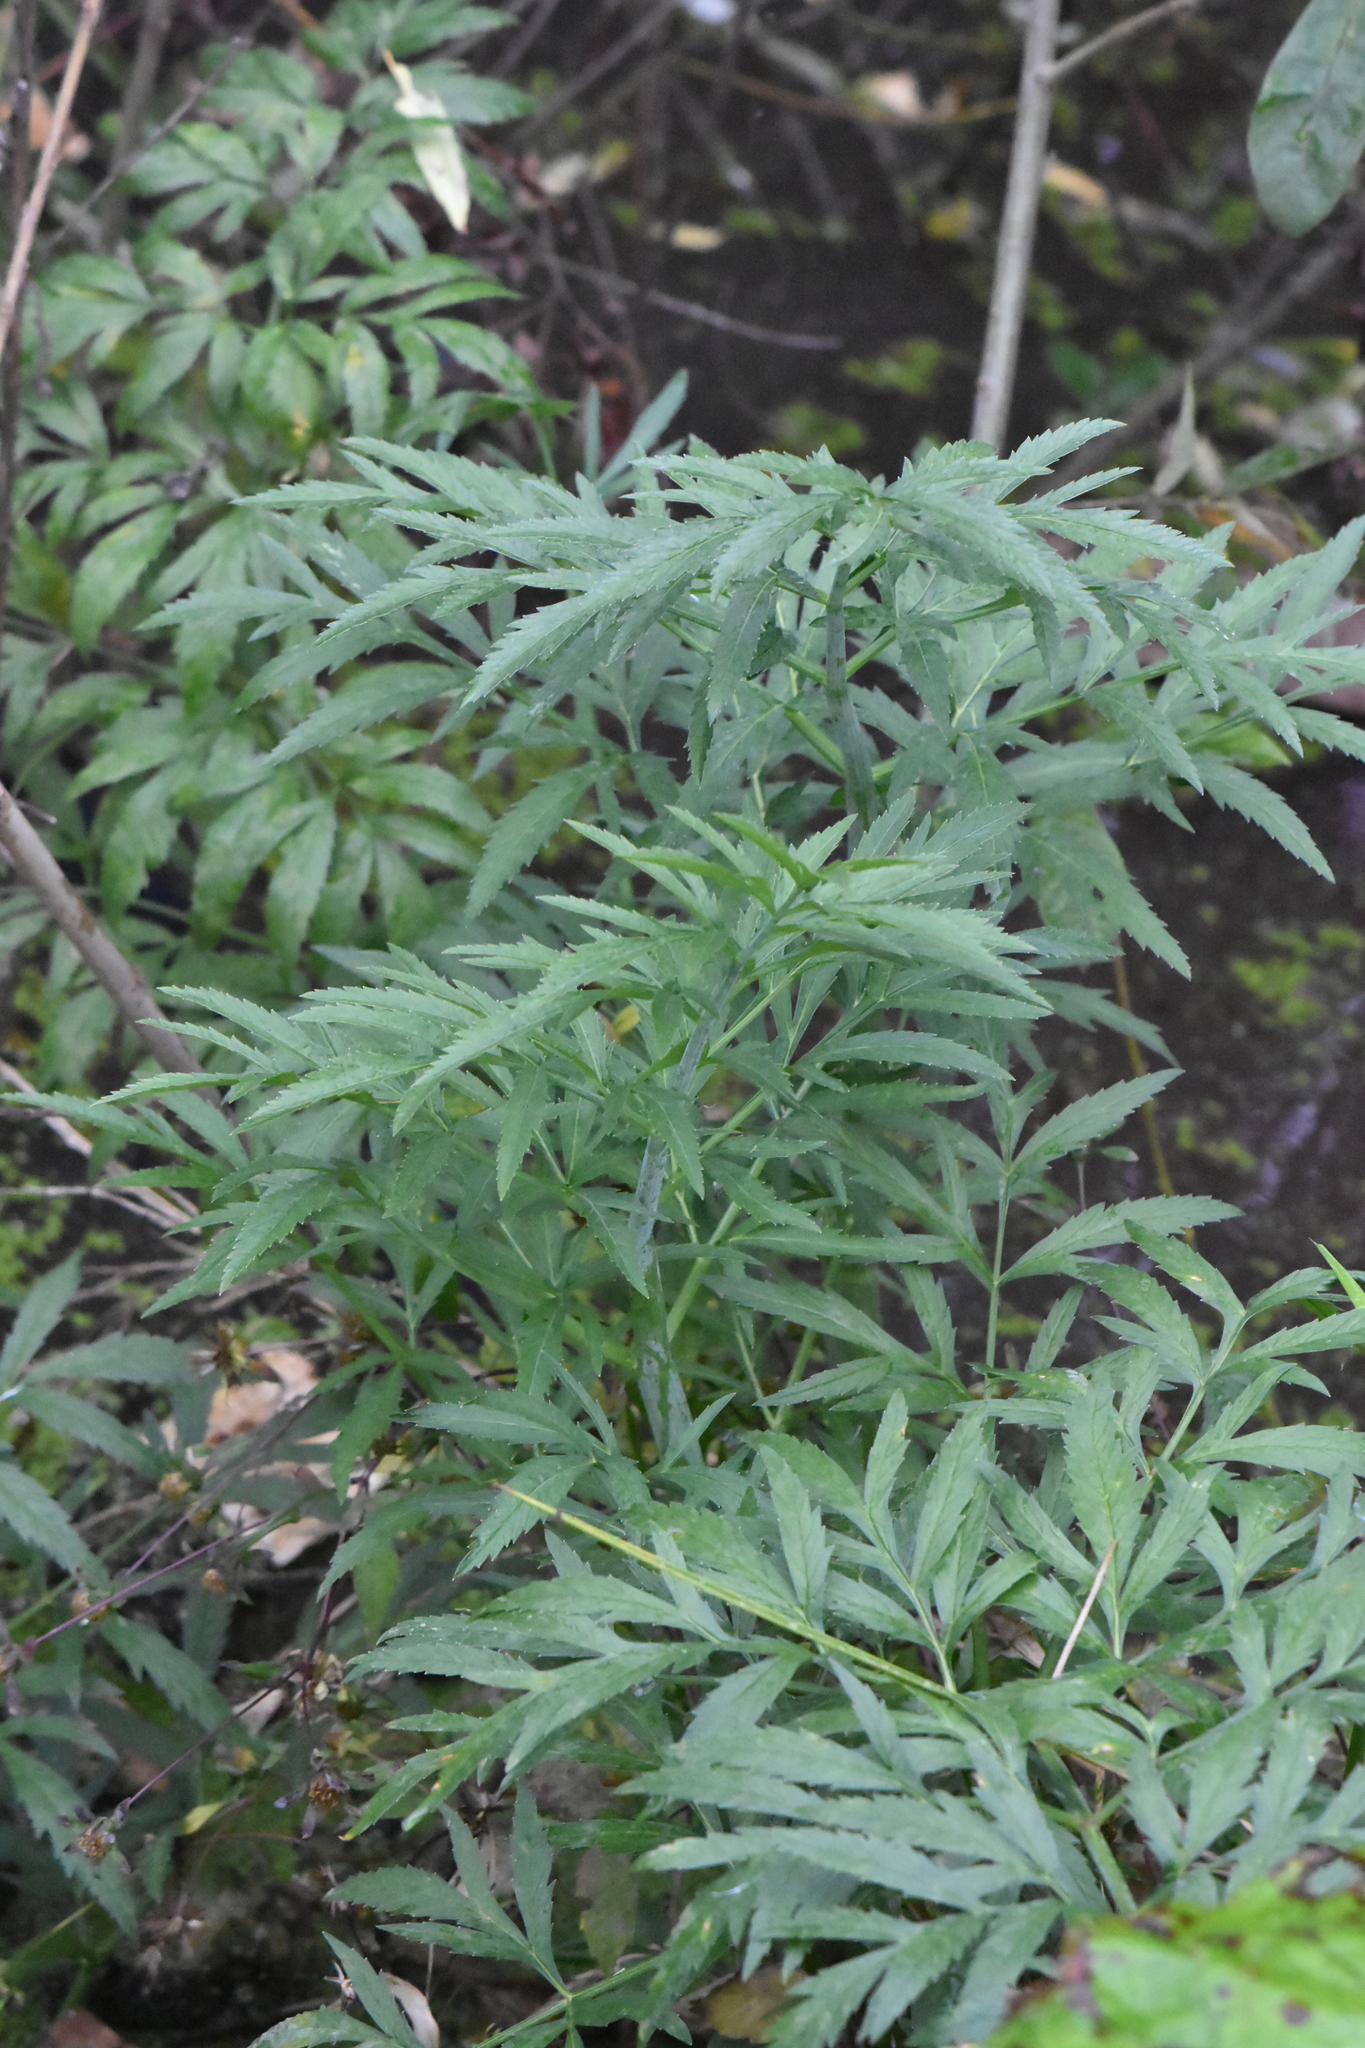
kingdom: Plantae
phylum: Tracheophyta
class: Magnoliopsida
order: Apiales
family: Apiaceae
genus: Cicuta
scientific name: Cicuta virosa
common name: Cowbane
